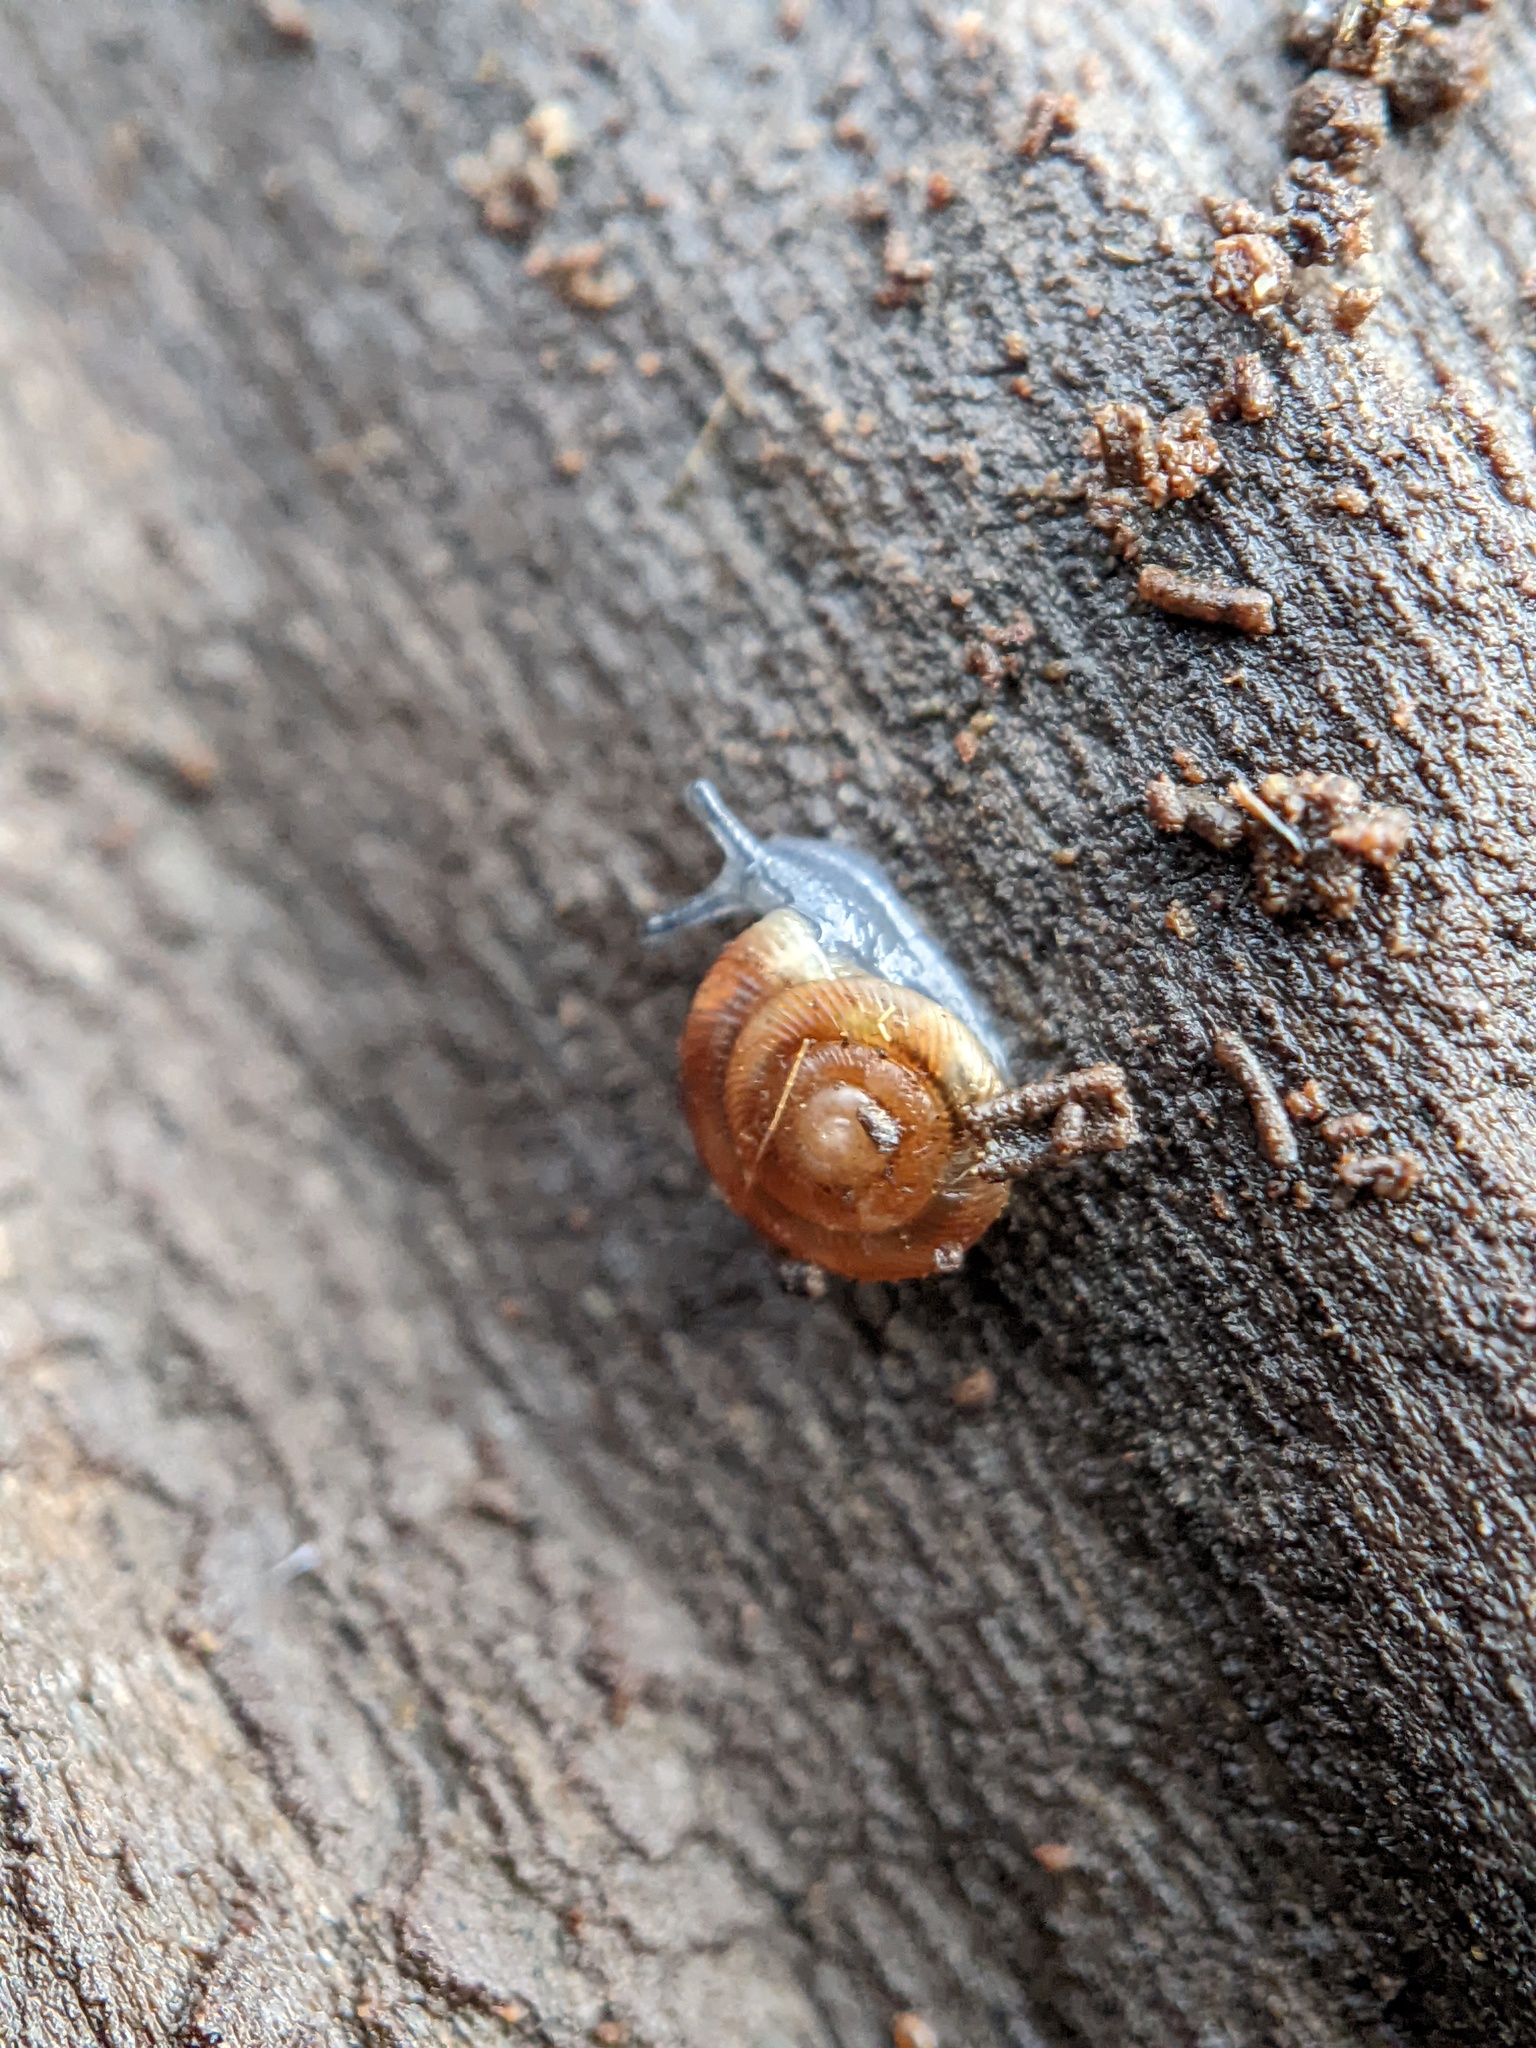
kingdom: Animalia
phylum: Mollusca
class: Gastropoda
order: Stylommatophora
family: Discidae
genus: Discus
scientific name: Discus rotundatus
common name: Rounded snail
